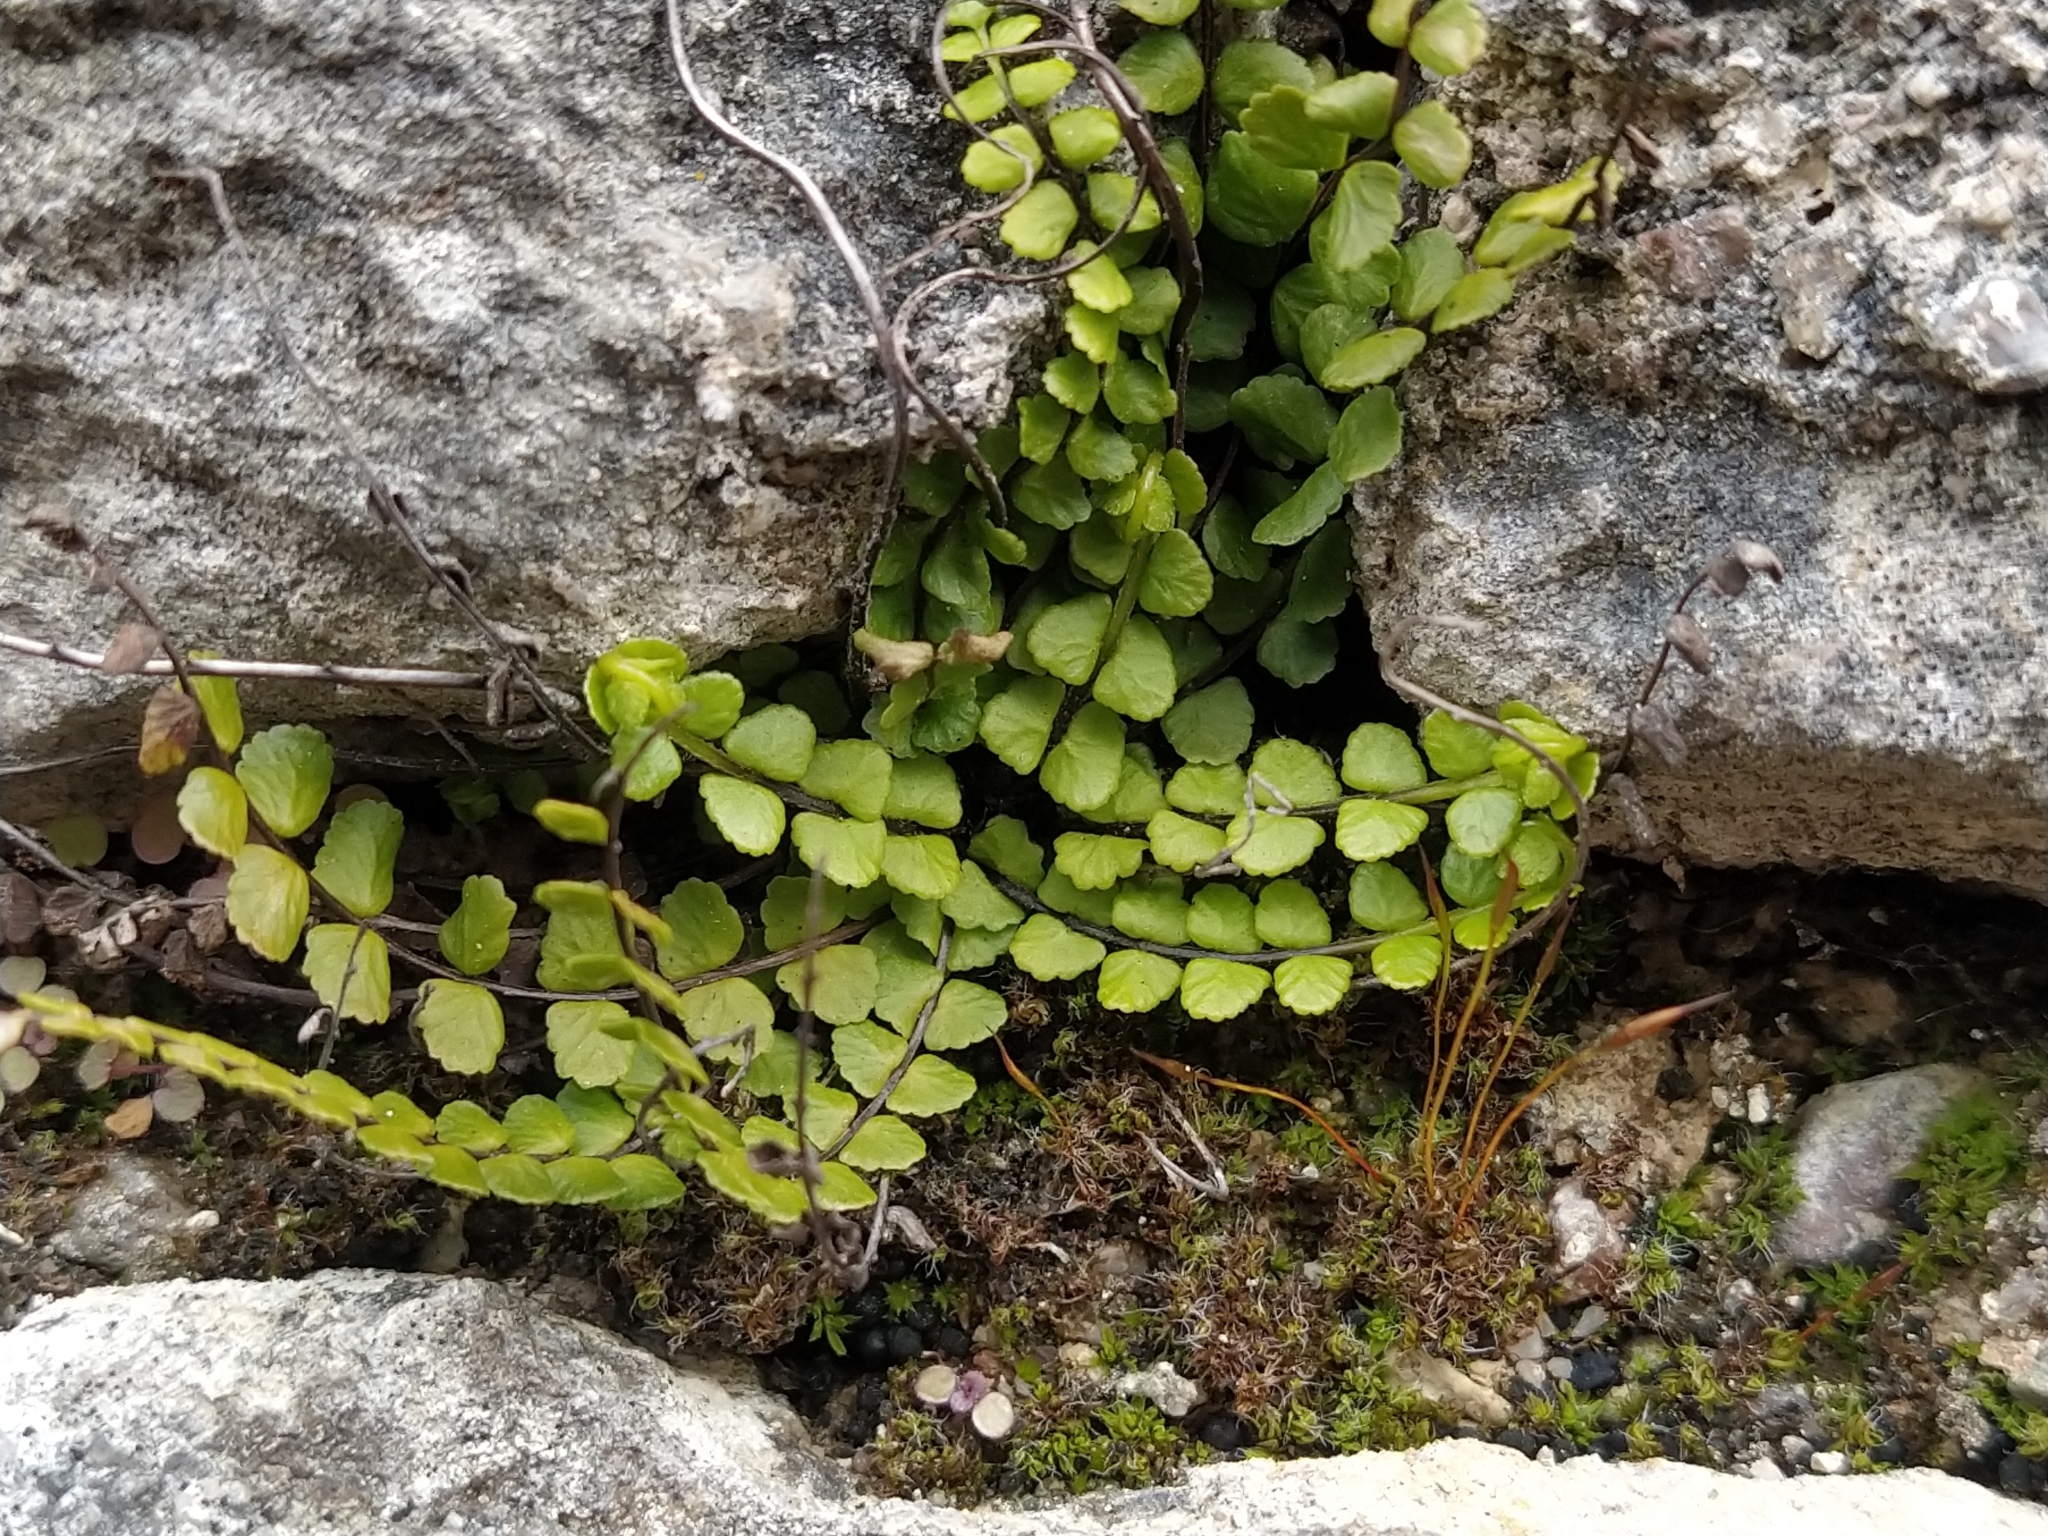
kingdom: Plantae
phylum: Tracheophyta
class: Polypodiopsida
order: Polypodiales
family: Aspleniaceae
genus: Asplenium
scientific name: Asplenium trichomanes
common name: Maidenhair spleenwort
